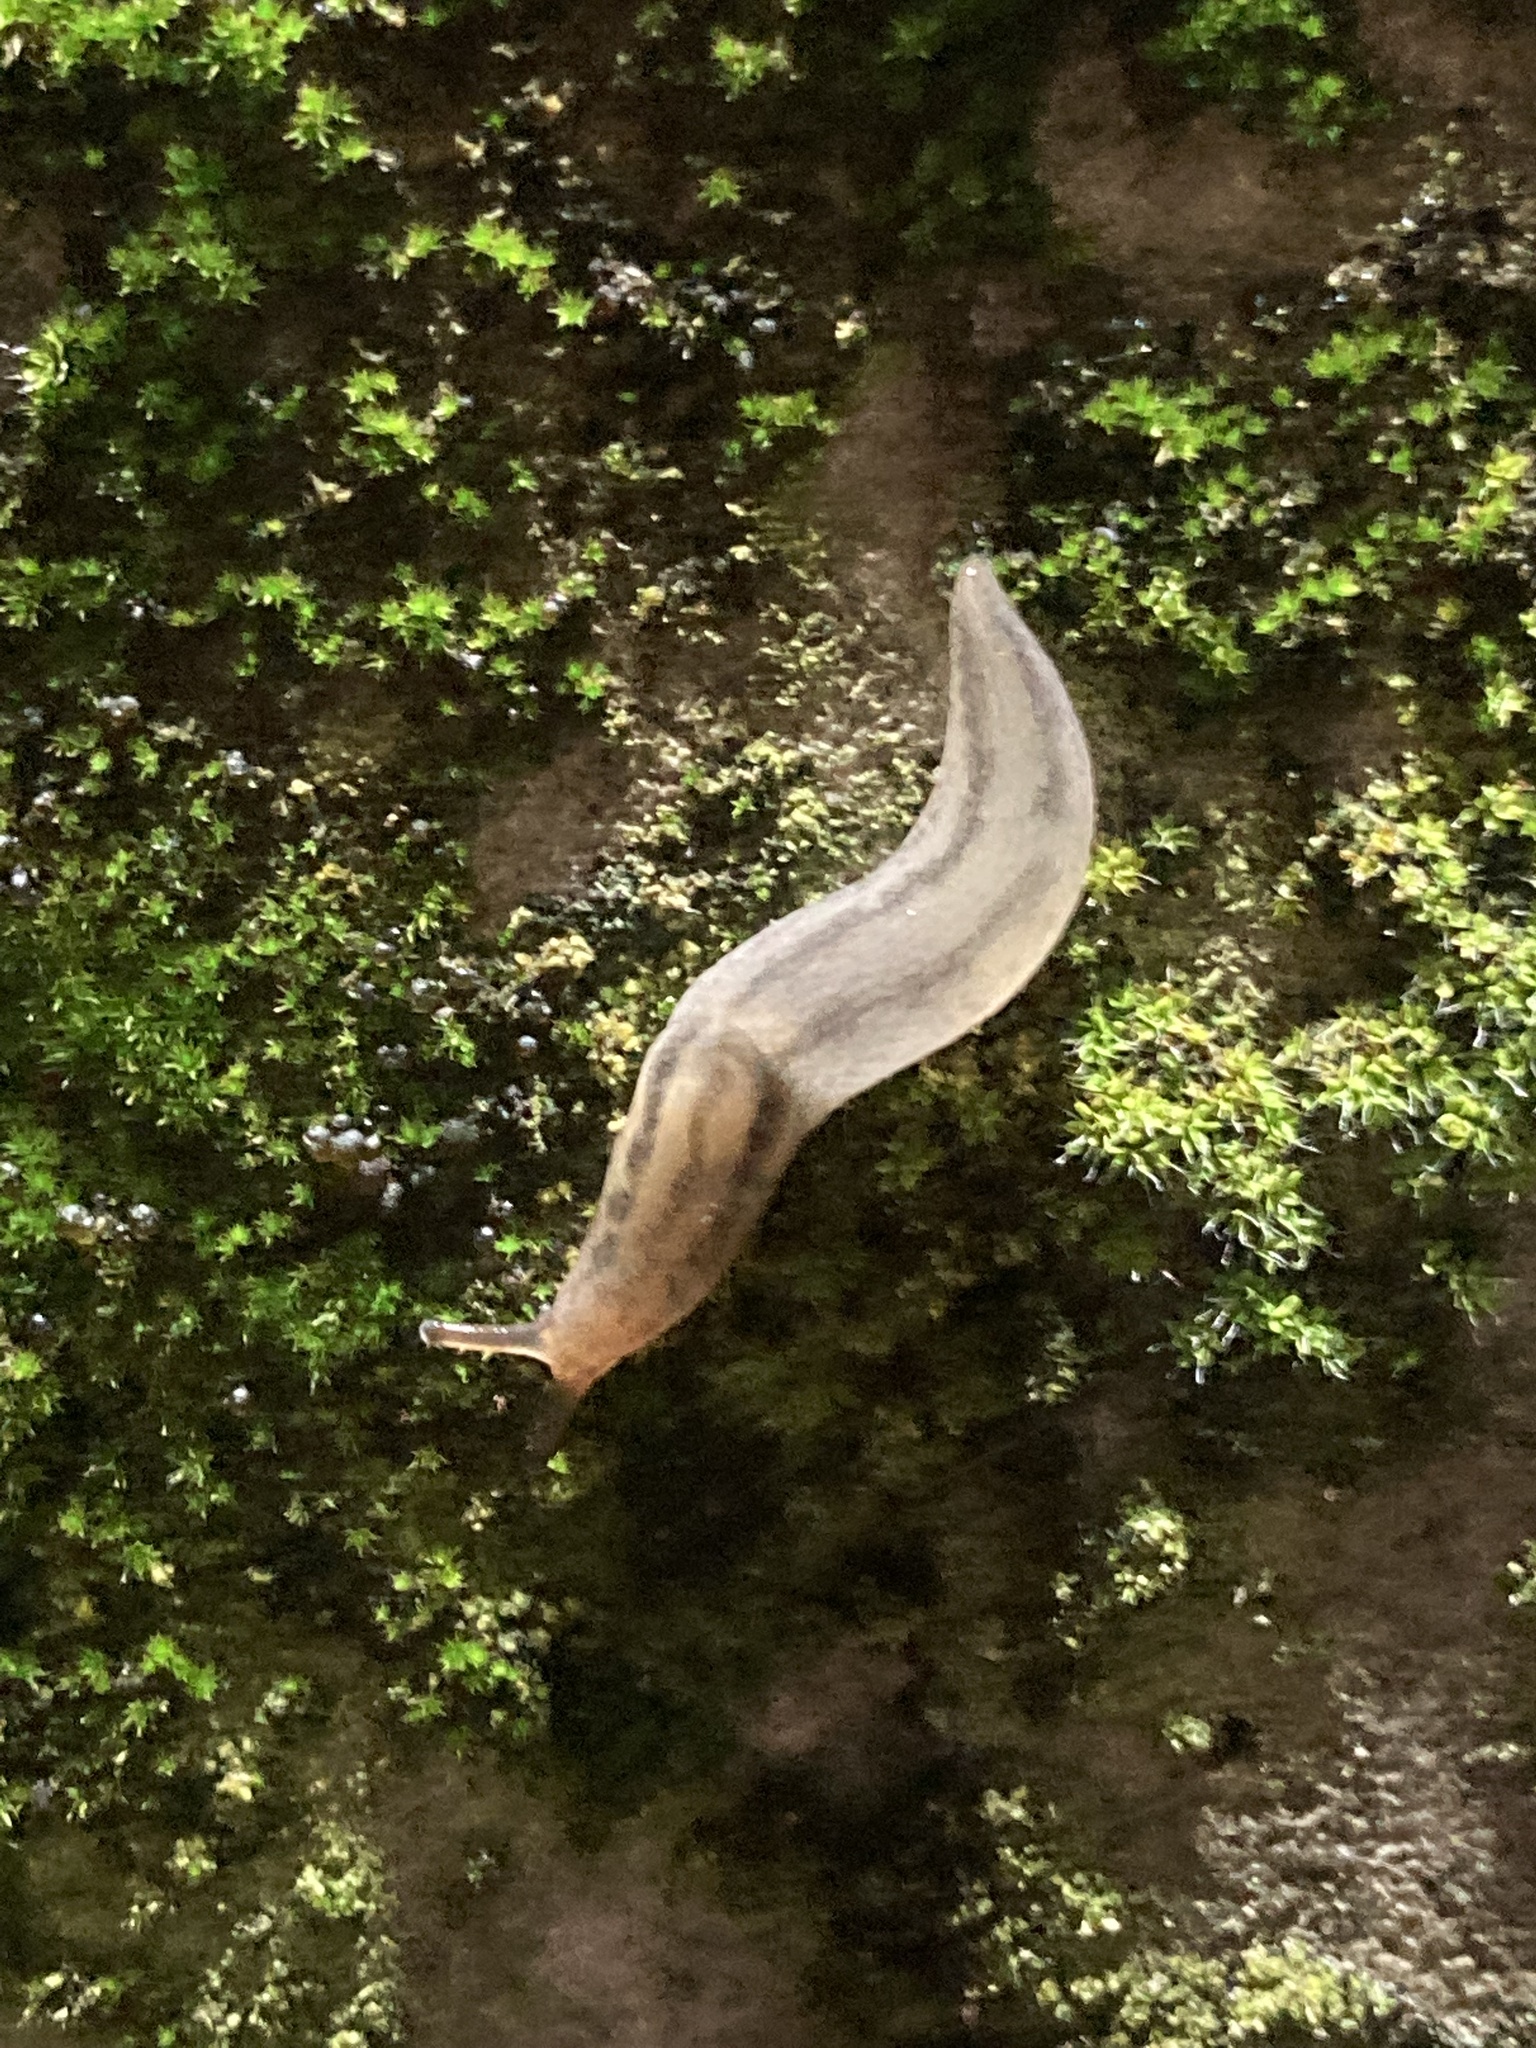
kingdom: Animalia
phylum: Mollusca
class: Gastropoda
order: Stylommatophora
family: Limacidae
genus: Ambigolimax
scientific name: Ambigolimax
